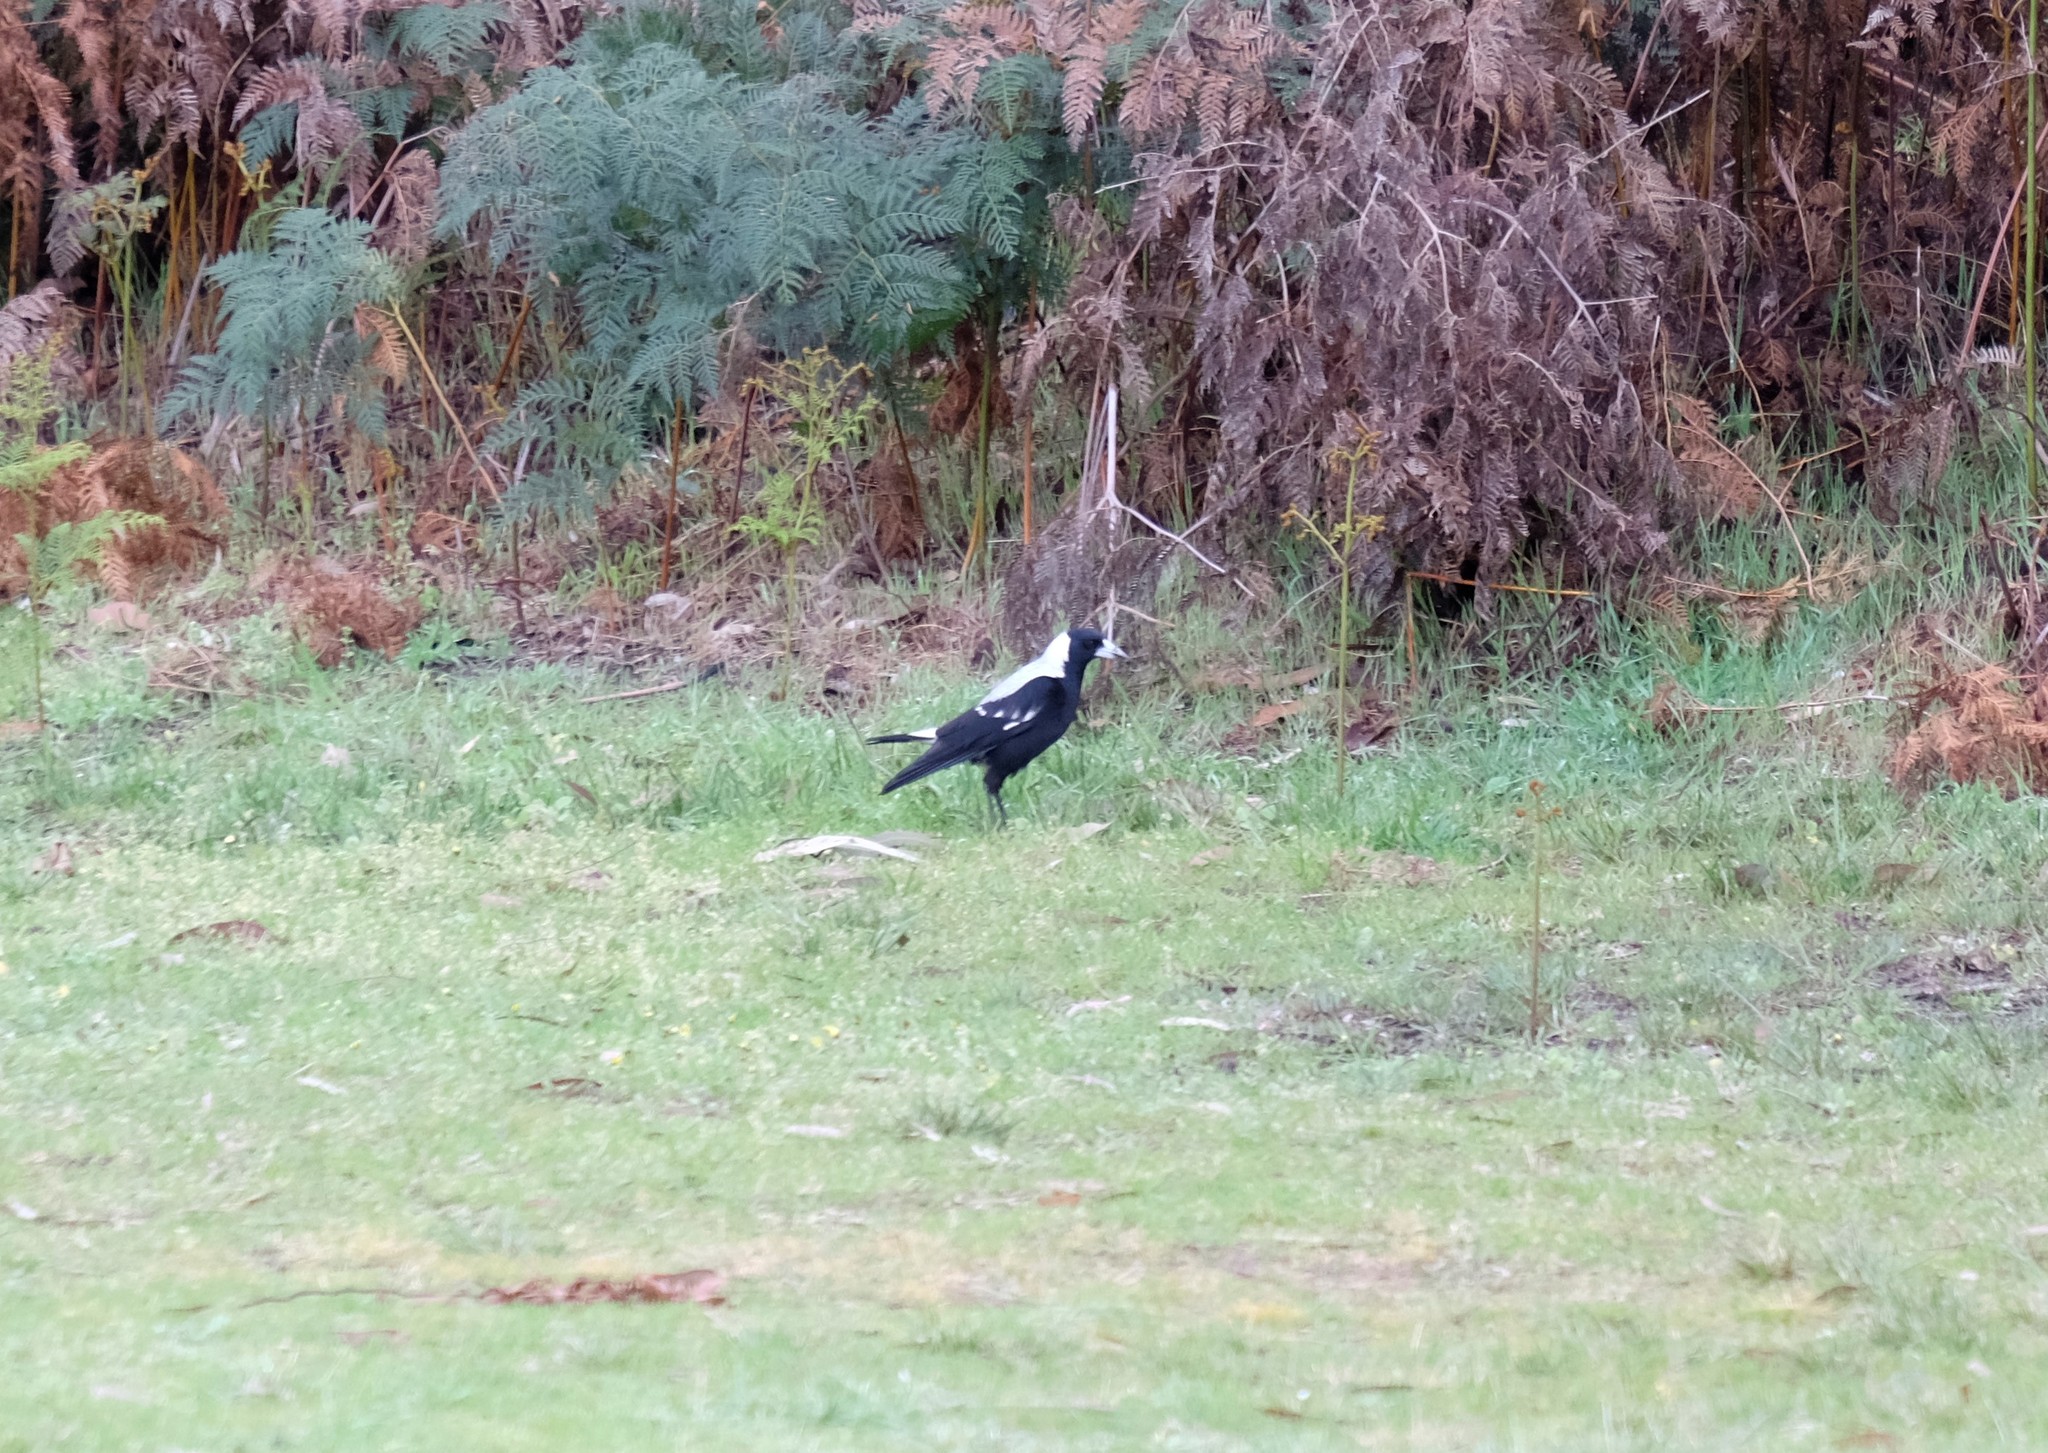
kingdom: Animalia
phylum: Chordata
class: Aves
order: Passeriformes
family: Cracticidae
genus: Gymnorhina
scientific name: Gymnorhina tibicen
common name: Australian magpie
